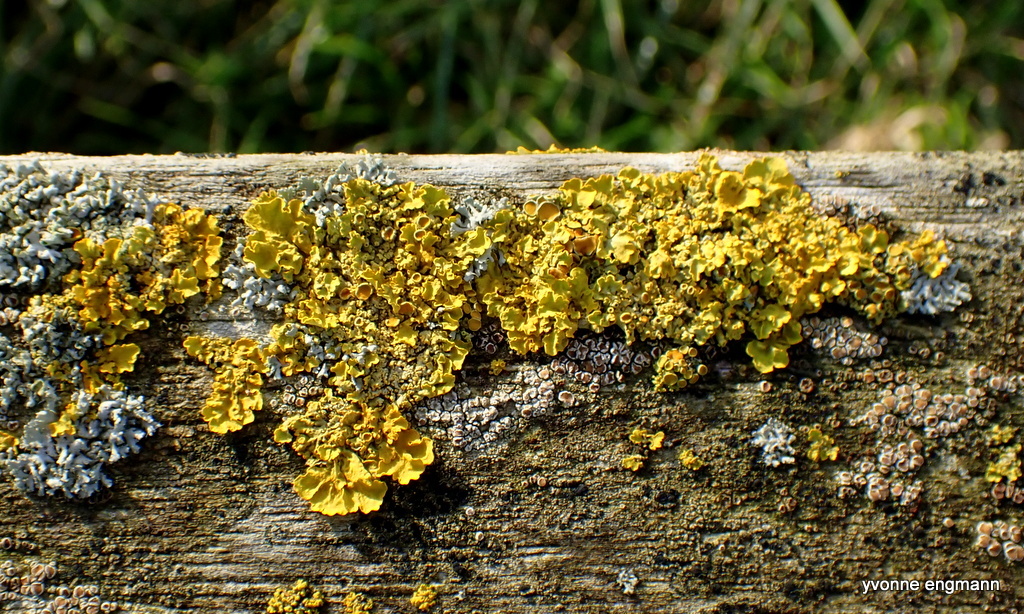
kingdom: Fungi
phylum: Ascomycota
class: Lecanoromycetes
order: Teloschistales
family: Teloschistaceae
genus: Xanthoria
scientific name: Xanthoria parietina
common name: Common orange lichen
